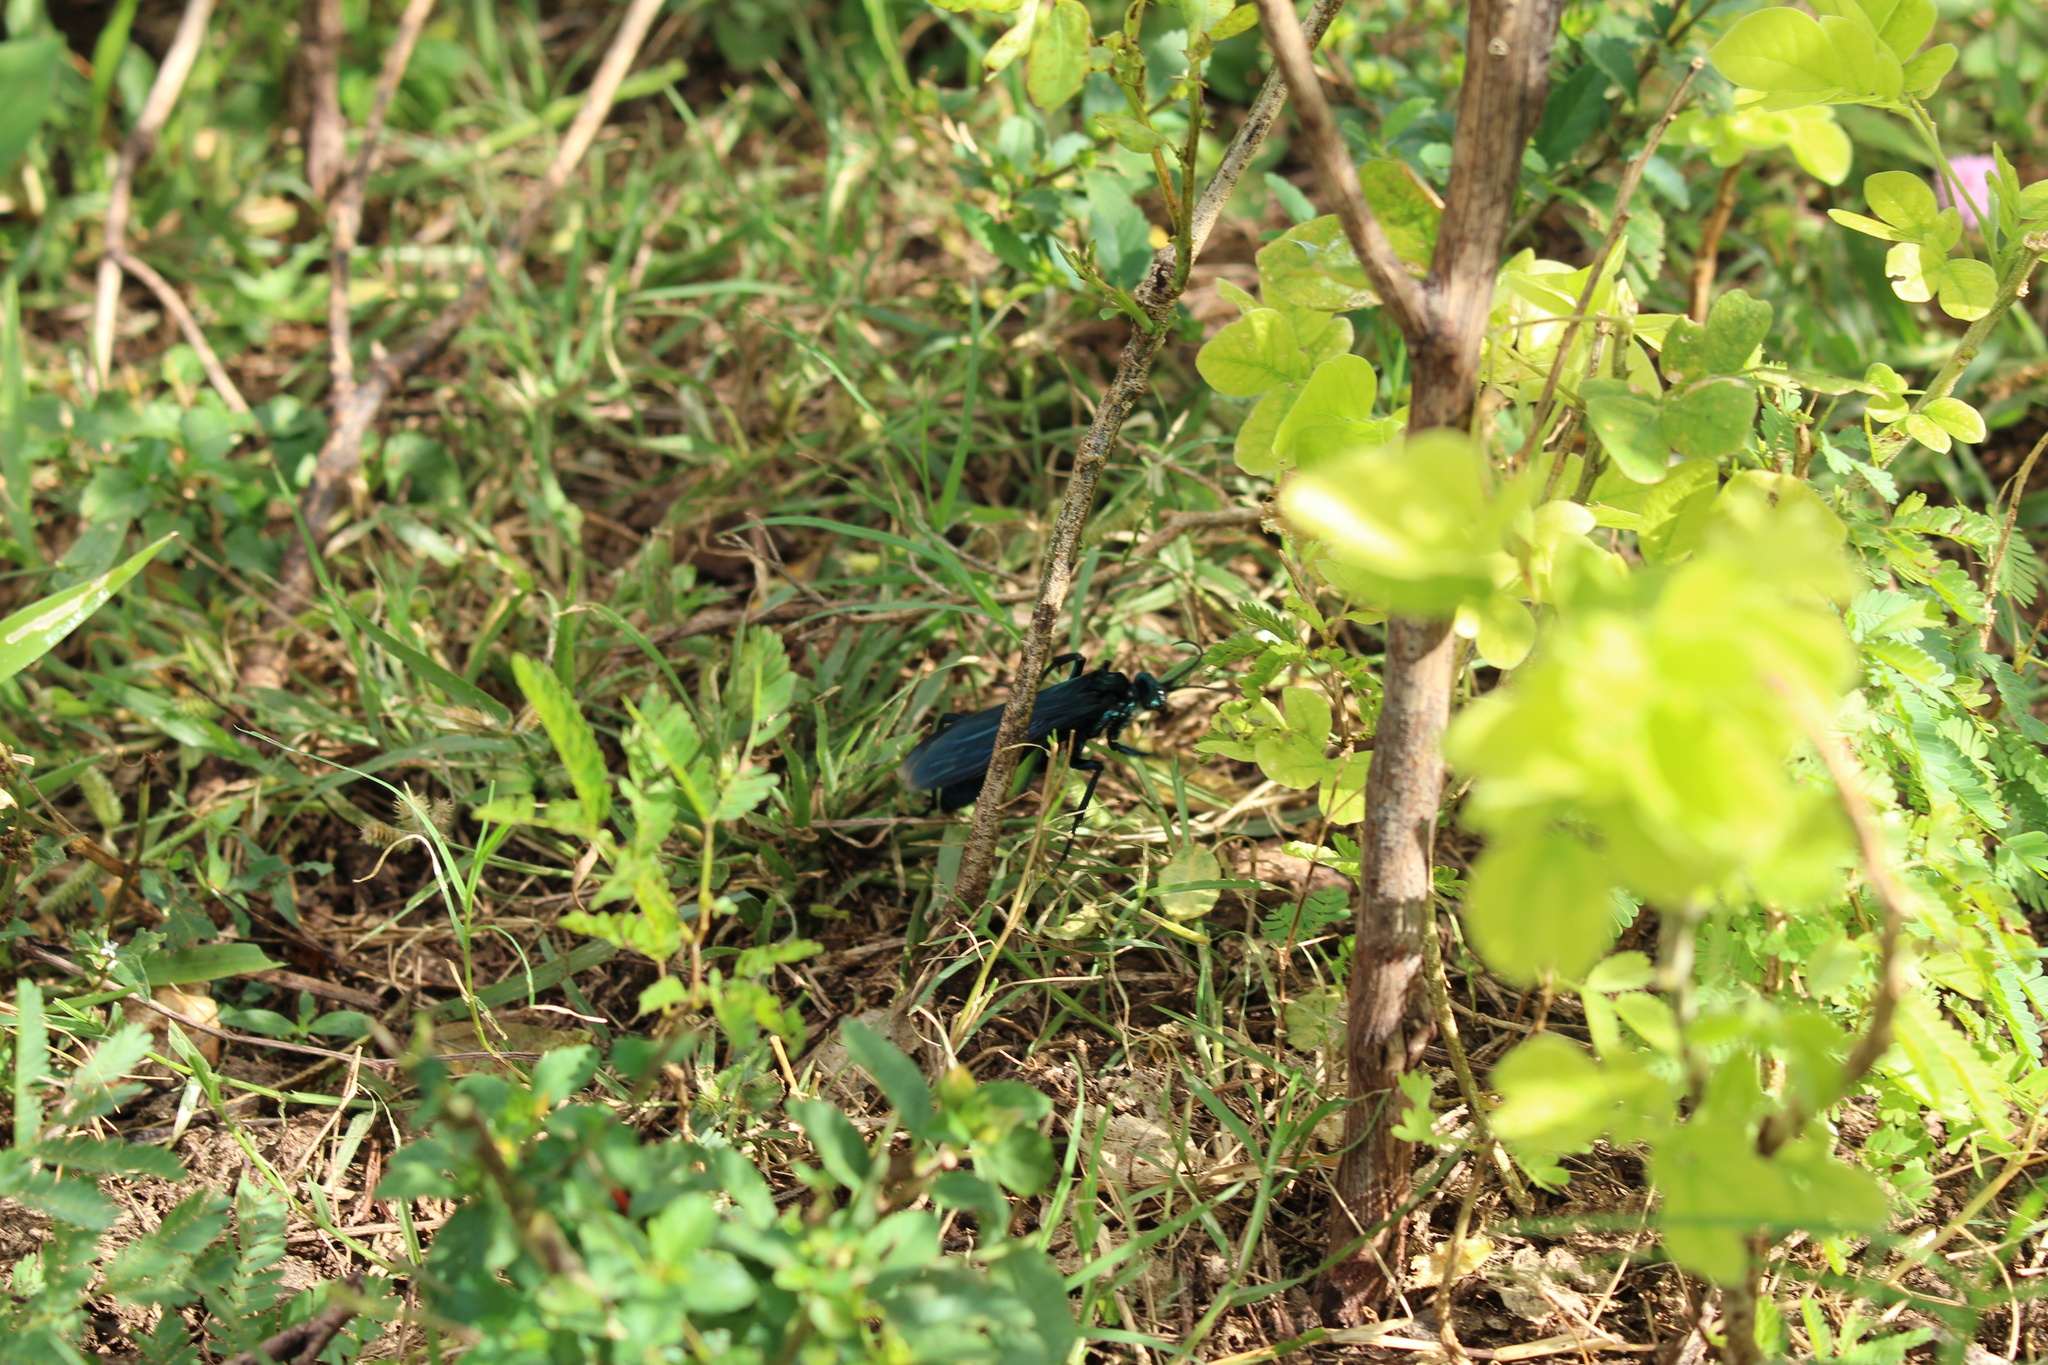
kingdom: Animalia
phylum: Arthropoda
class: Insecta
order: Hymenoptera
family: Pompilidae
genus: Pepsis
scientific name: Pepsis terminata
